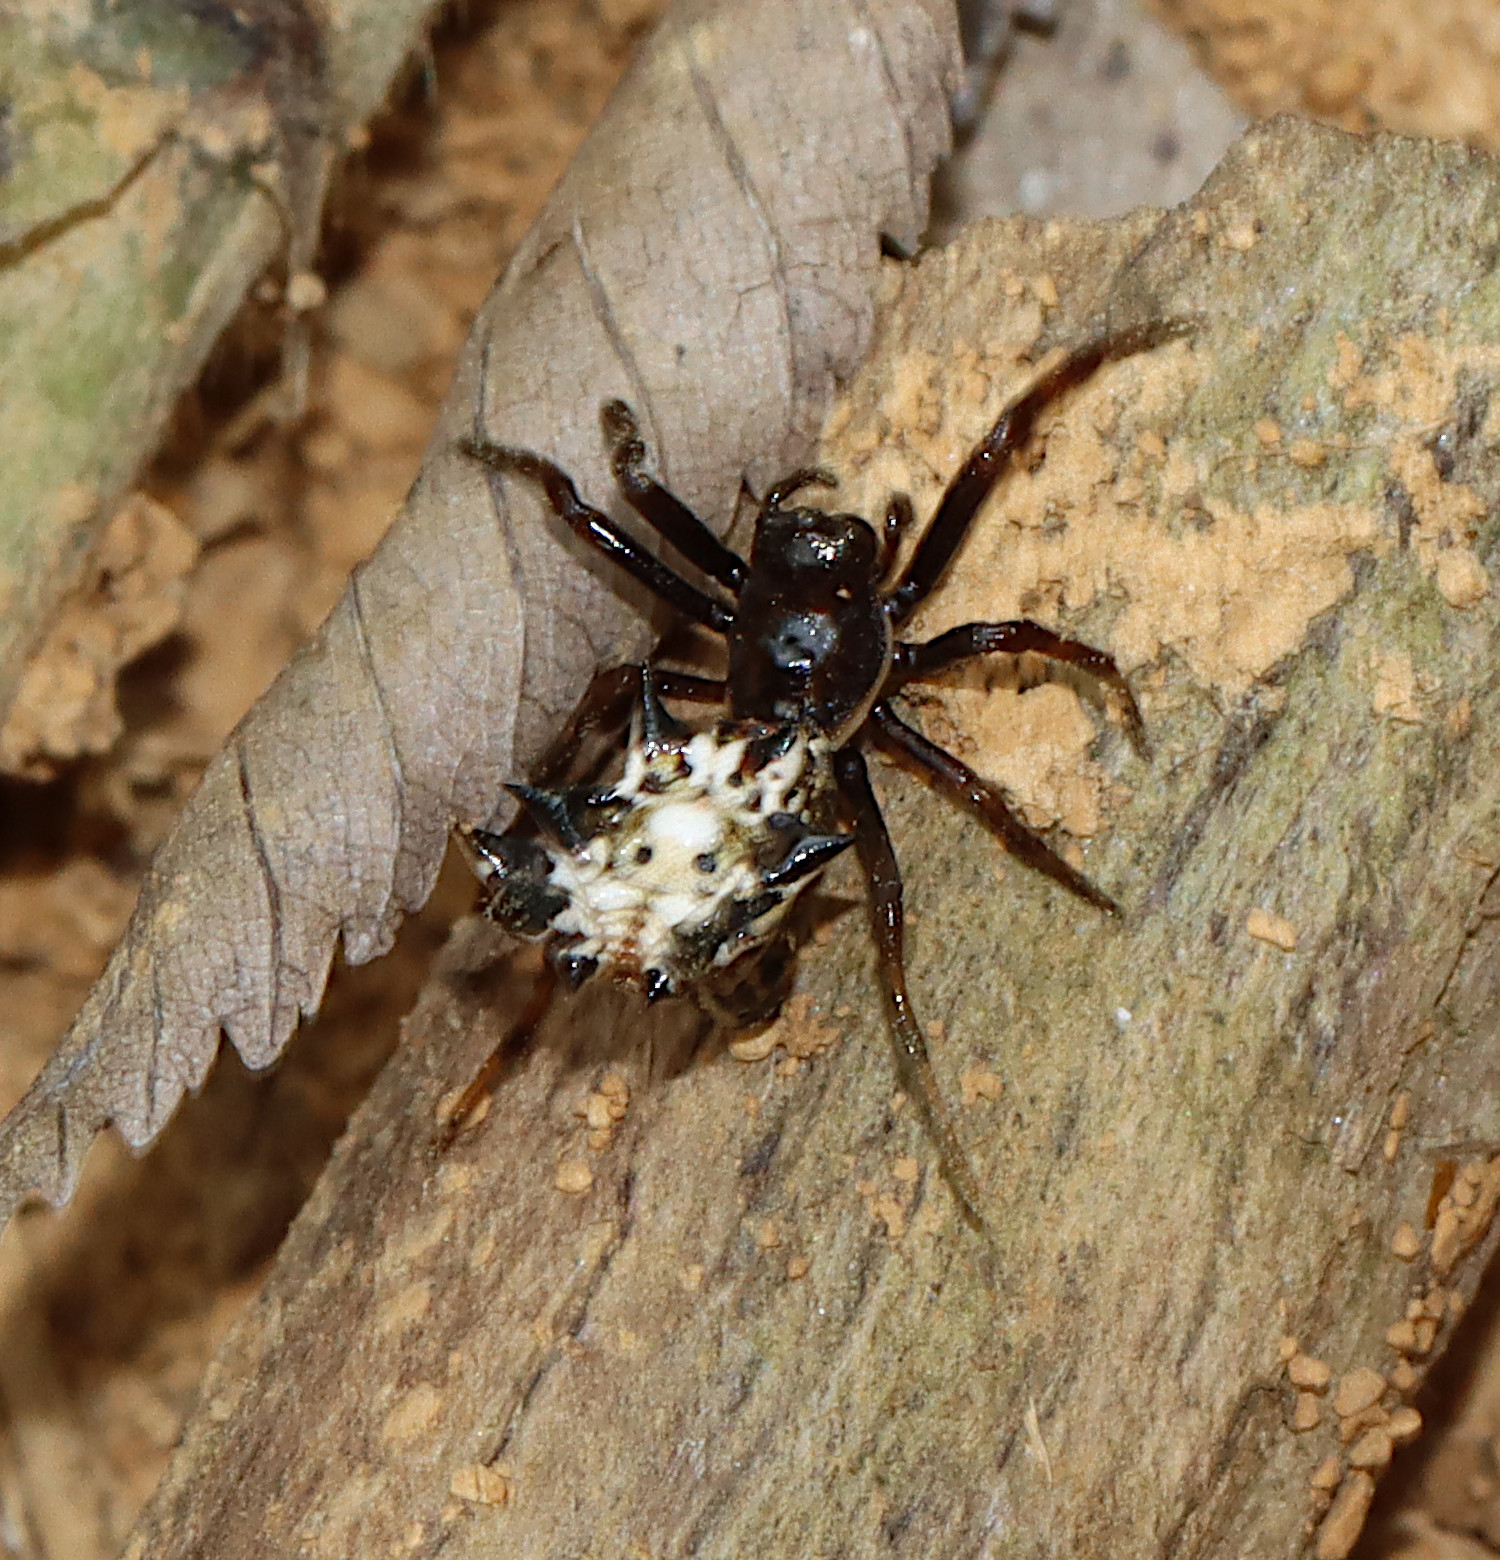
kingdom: Animalia
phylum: Arthropoda
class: Arachnida
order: Araneae
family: Araneidae
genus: Micrathena
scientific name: Micrathena gracilis
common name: Orb weavers
